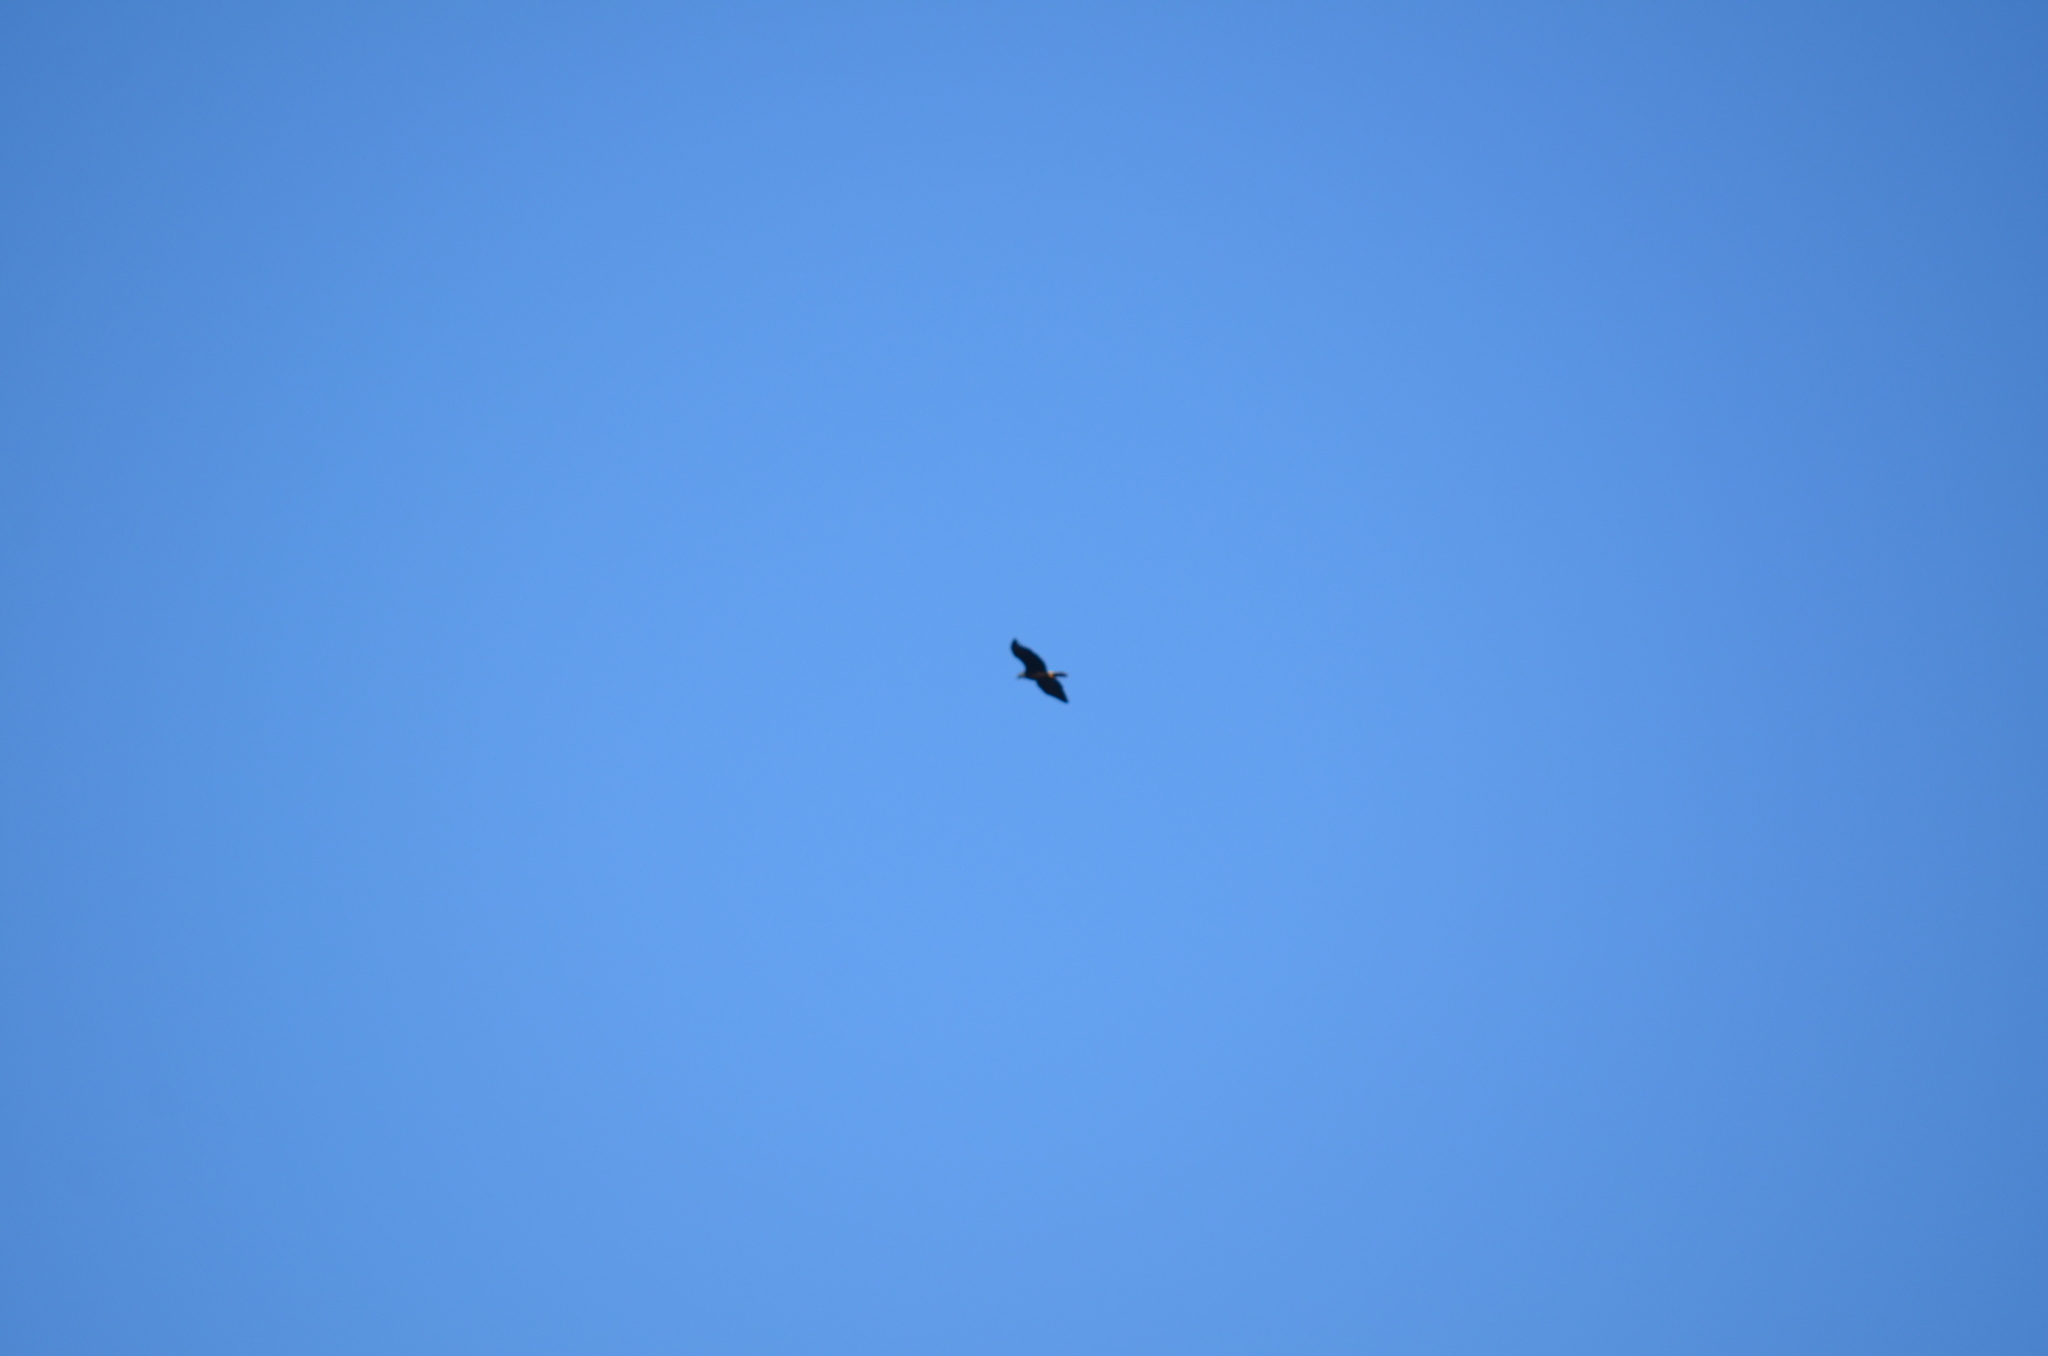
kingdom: Animalia
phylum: Chordata
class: Aves
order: Accipitriformes
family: Accipitridae
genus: Haliaeetus
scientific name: Haliaeetus leucocephalus
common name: Bald eagle
